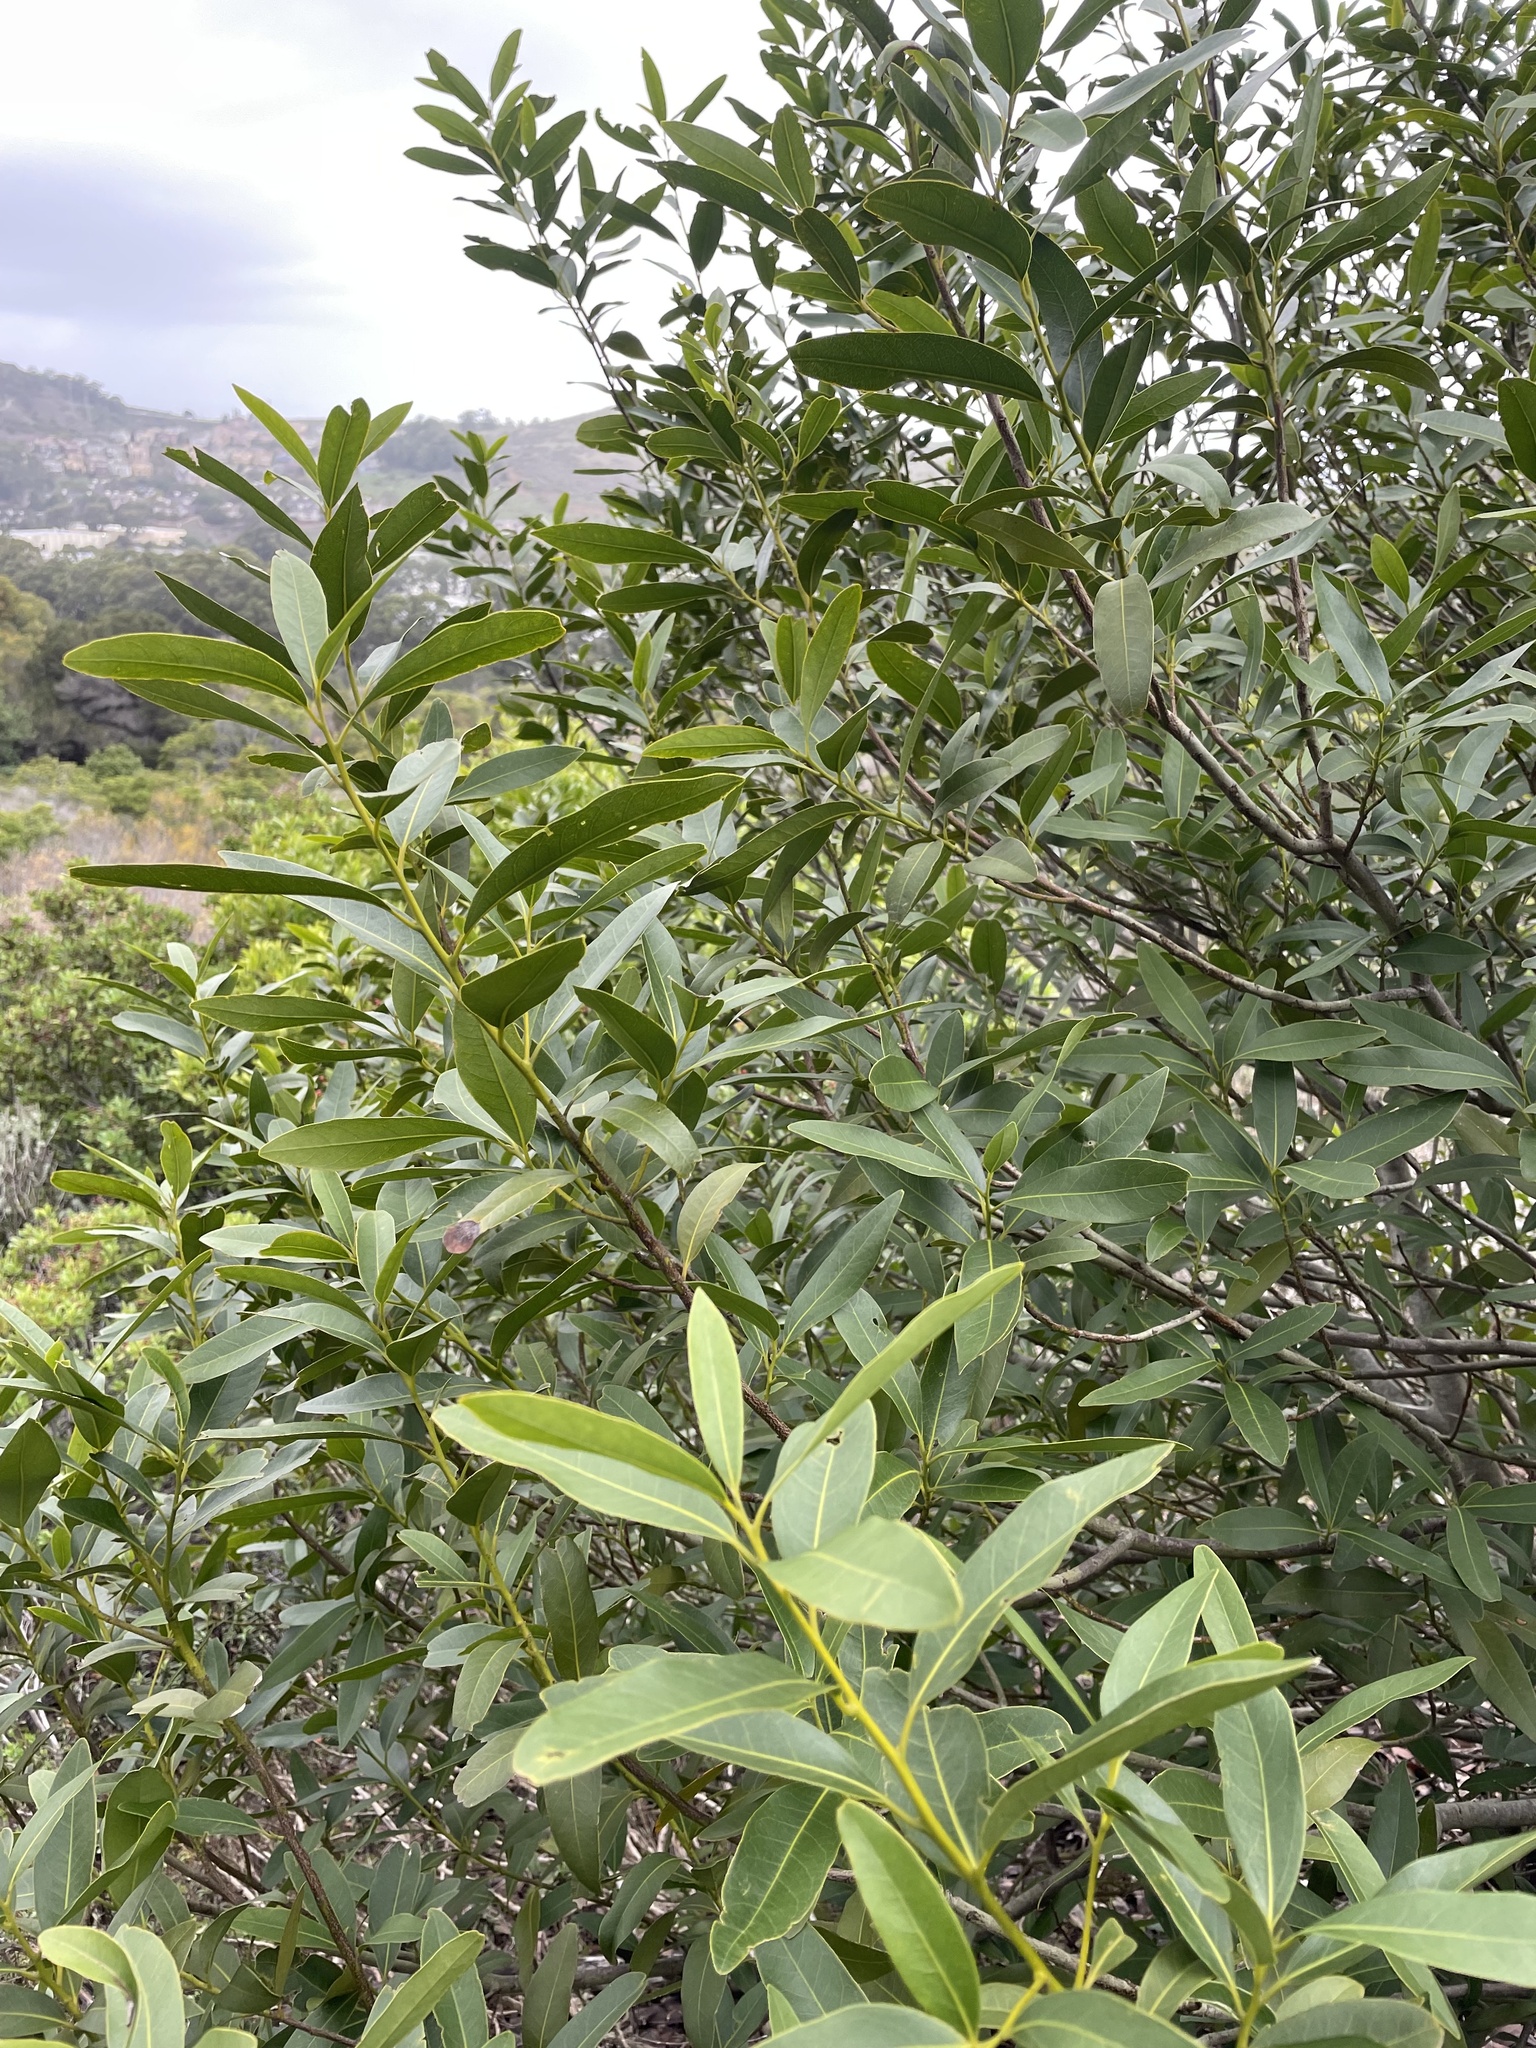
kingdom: Plantae
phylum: Tracheophyta
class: Magnoliopsida
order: Laurales
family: Lauraceae
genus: Umbellularia
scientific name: Umbellularia californica
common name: California bay
